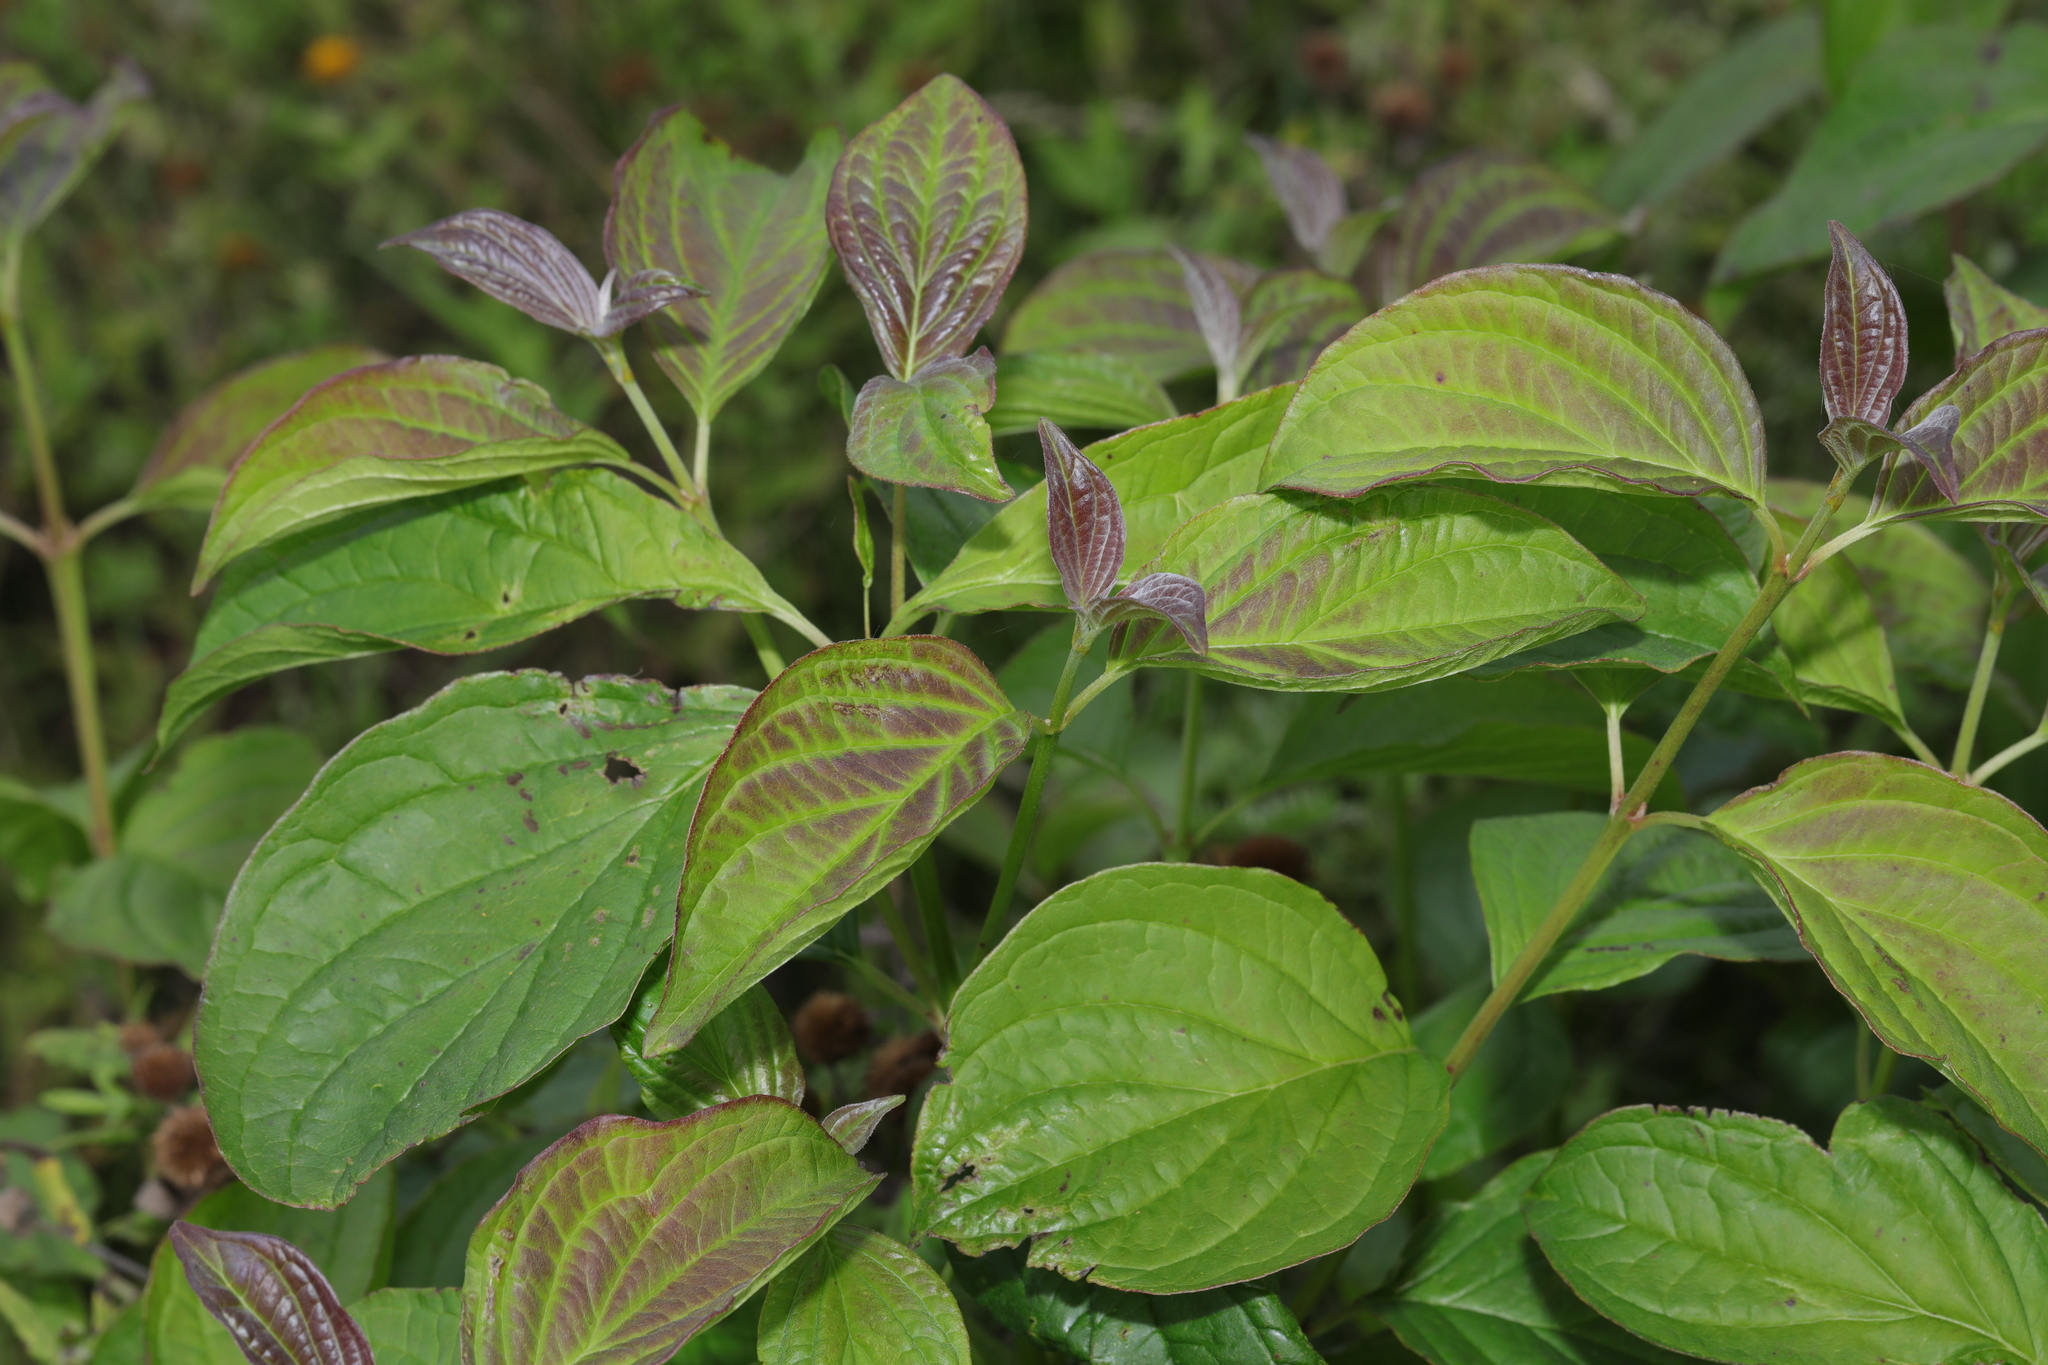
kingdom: Plantae
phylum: Tracheophyta
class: Magnoliopsida
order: Cornales
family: Cornaceae
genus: Cornus
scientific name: Cornus sanguinea
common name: Dogwood
